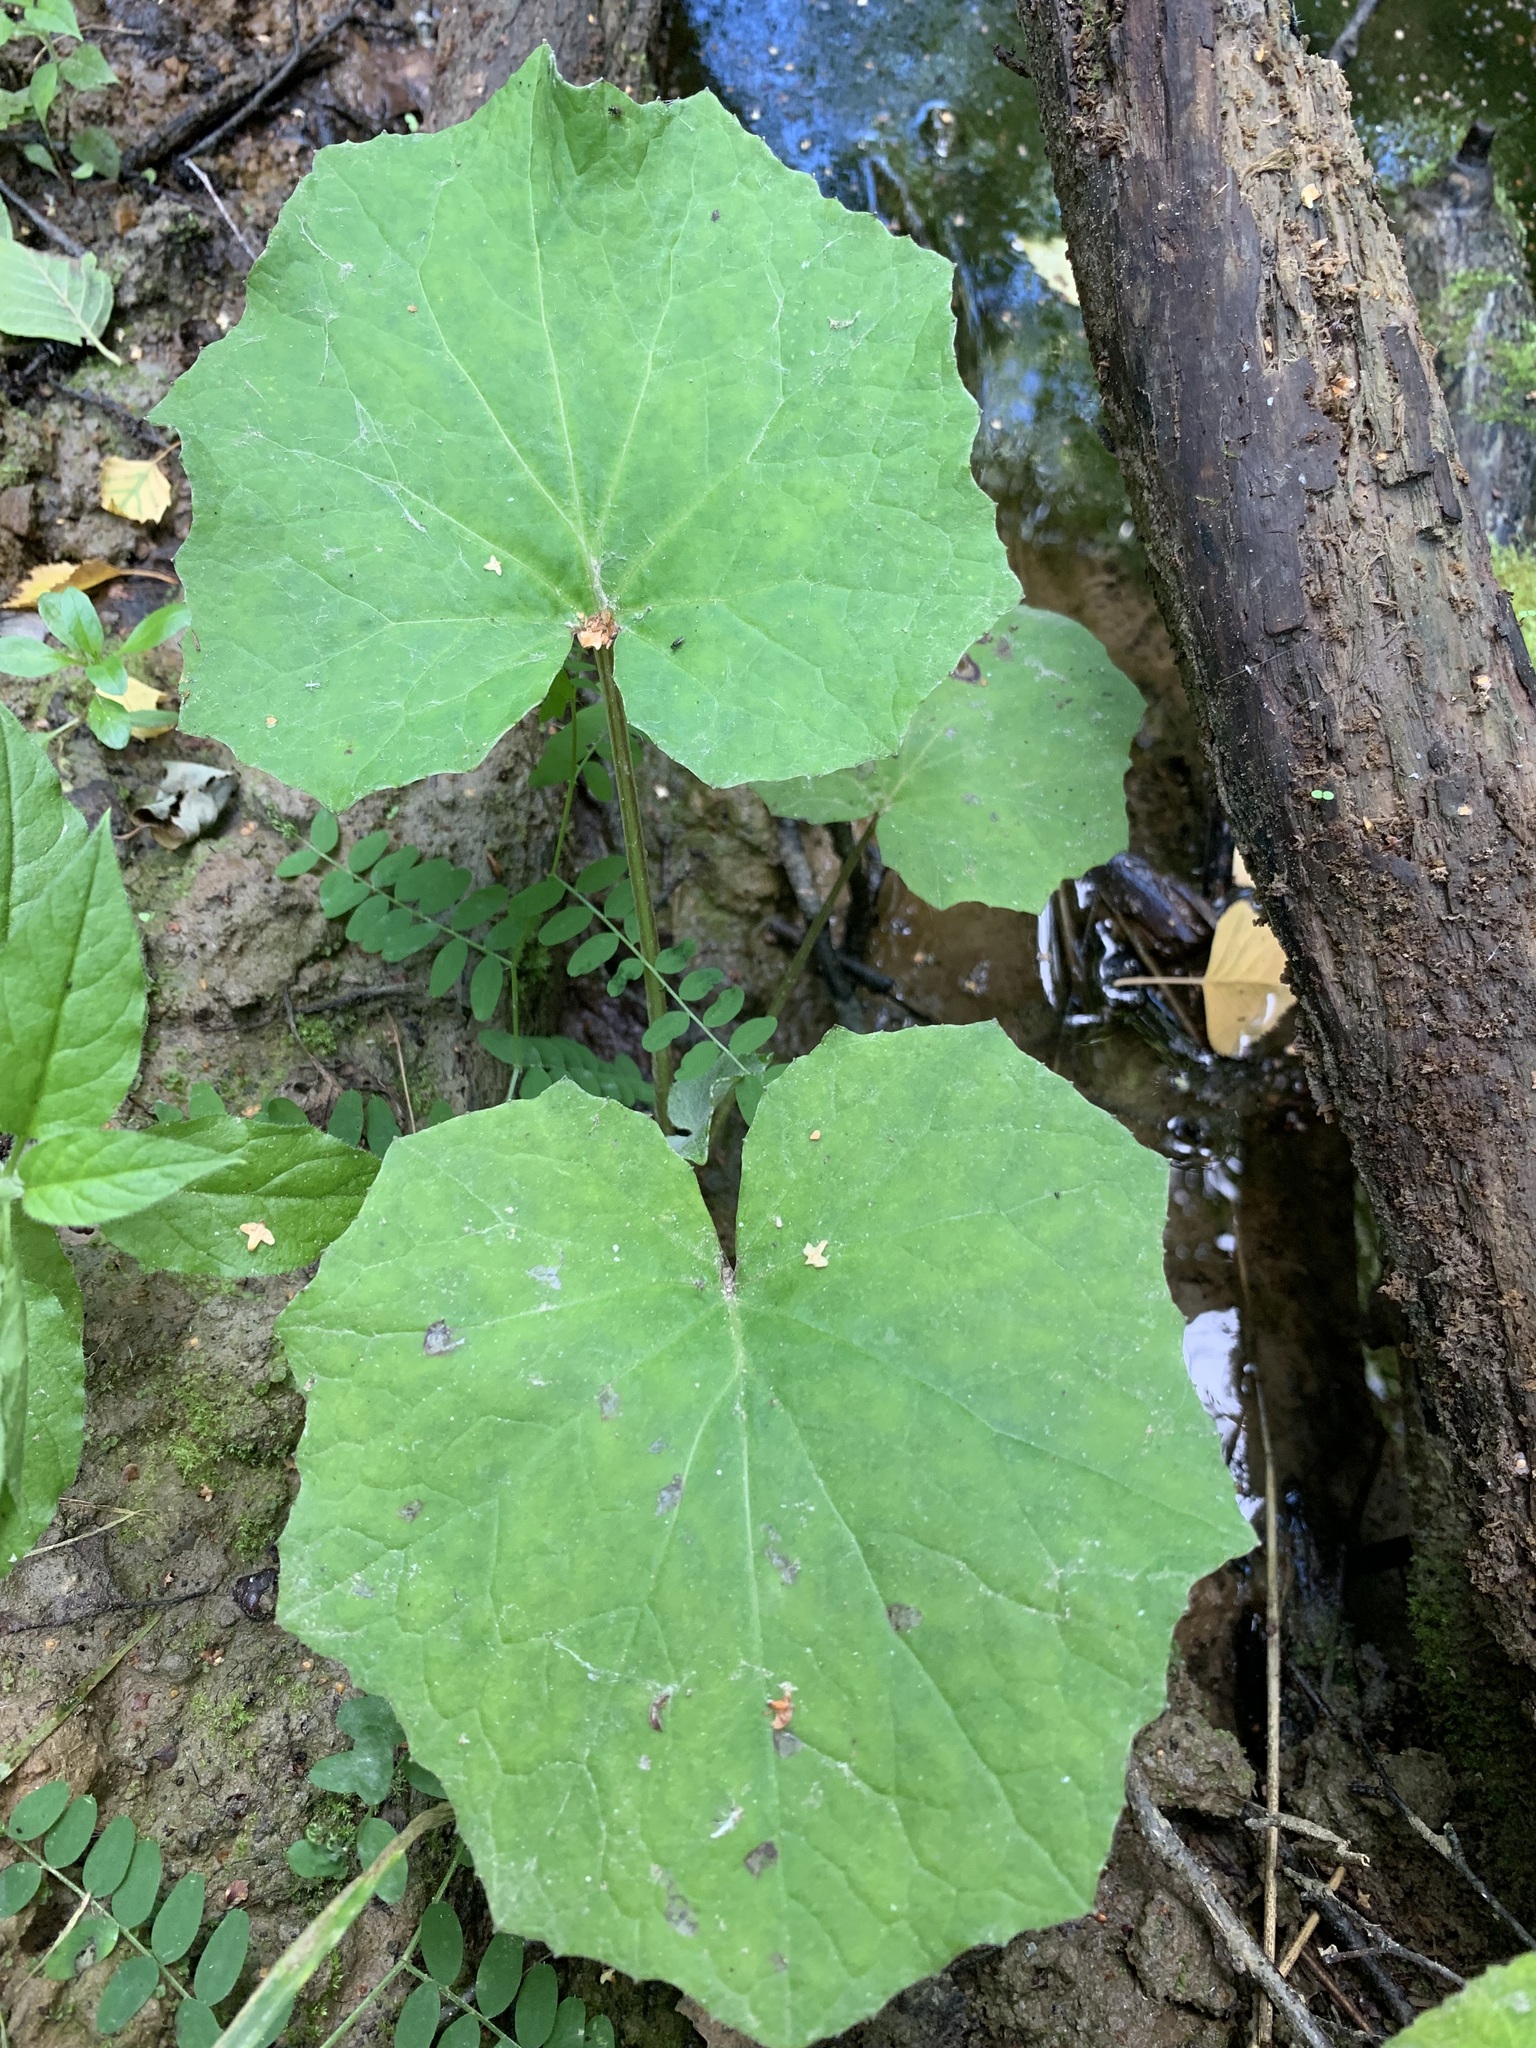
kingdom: Plantae
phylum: Tracheophyta
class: Magnoliopsida
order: Asterales
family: Asteraceae
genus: Tussilago
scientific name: Tussilago farfara
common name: Coltsfoot
